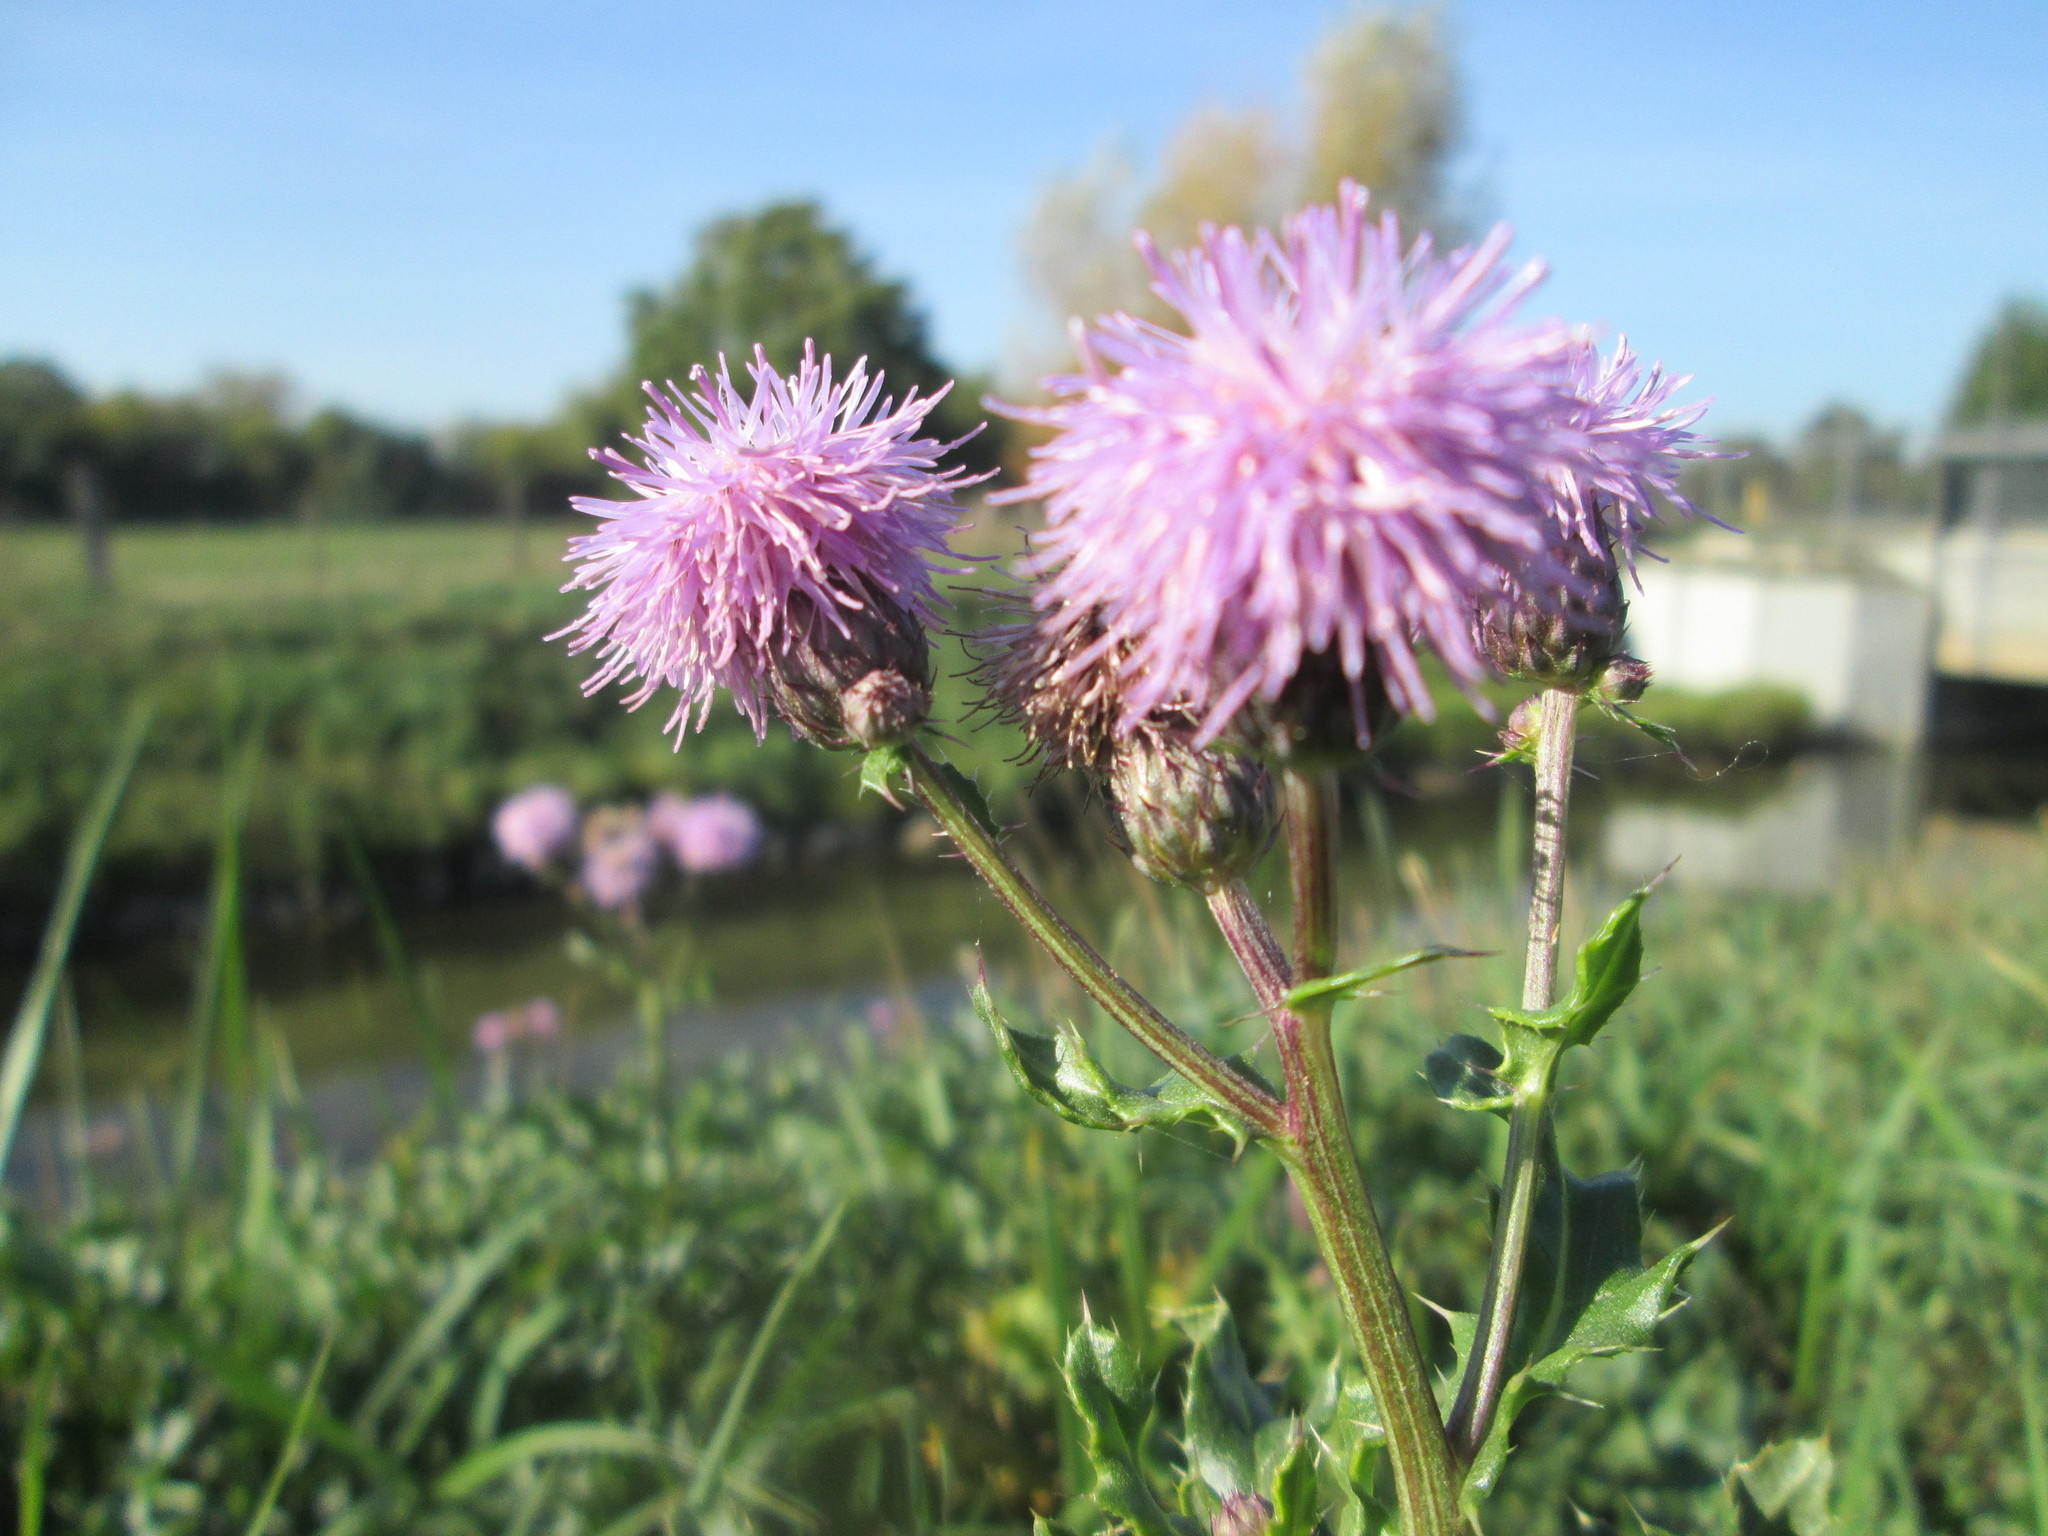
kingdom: Plantae
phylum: Tracheophyta
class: Magnoliopsida
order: Asterales
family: Asteraceae
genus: Cirsium
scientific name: Cirsium arvense
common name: Creeping thistle
